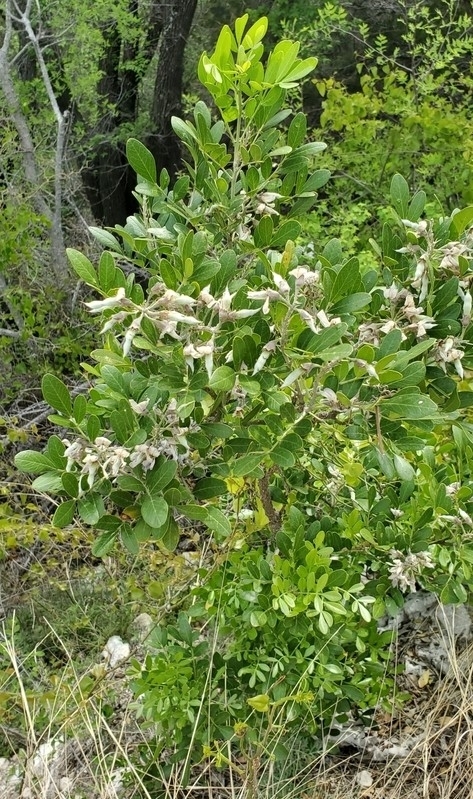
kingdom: Plantae
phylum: Tracheophyta
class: Magnoliopsida
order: Fabales
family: Fabaceae
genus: Dermatophyllum
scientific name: Dermatophyllum secundiflorum
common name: Texas-mountain-laurel
